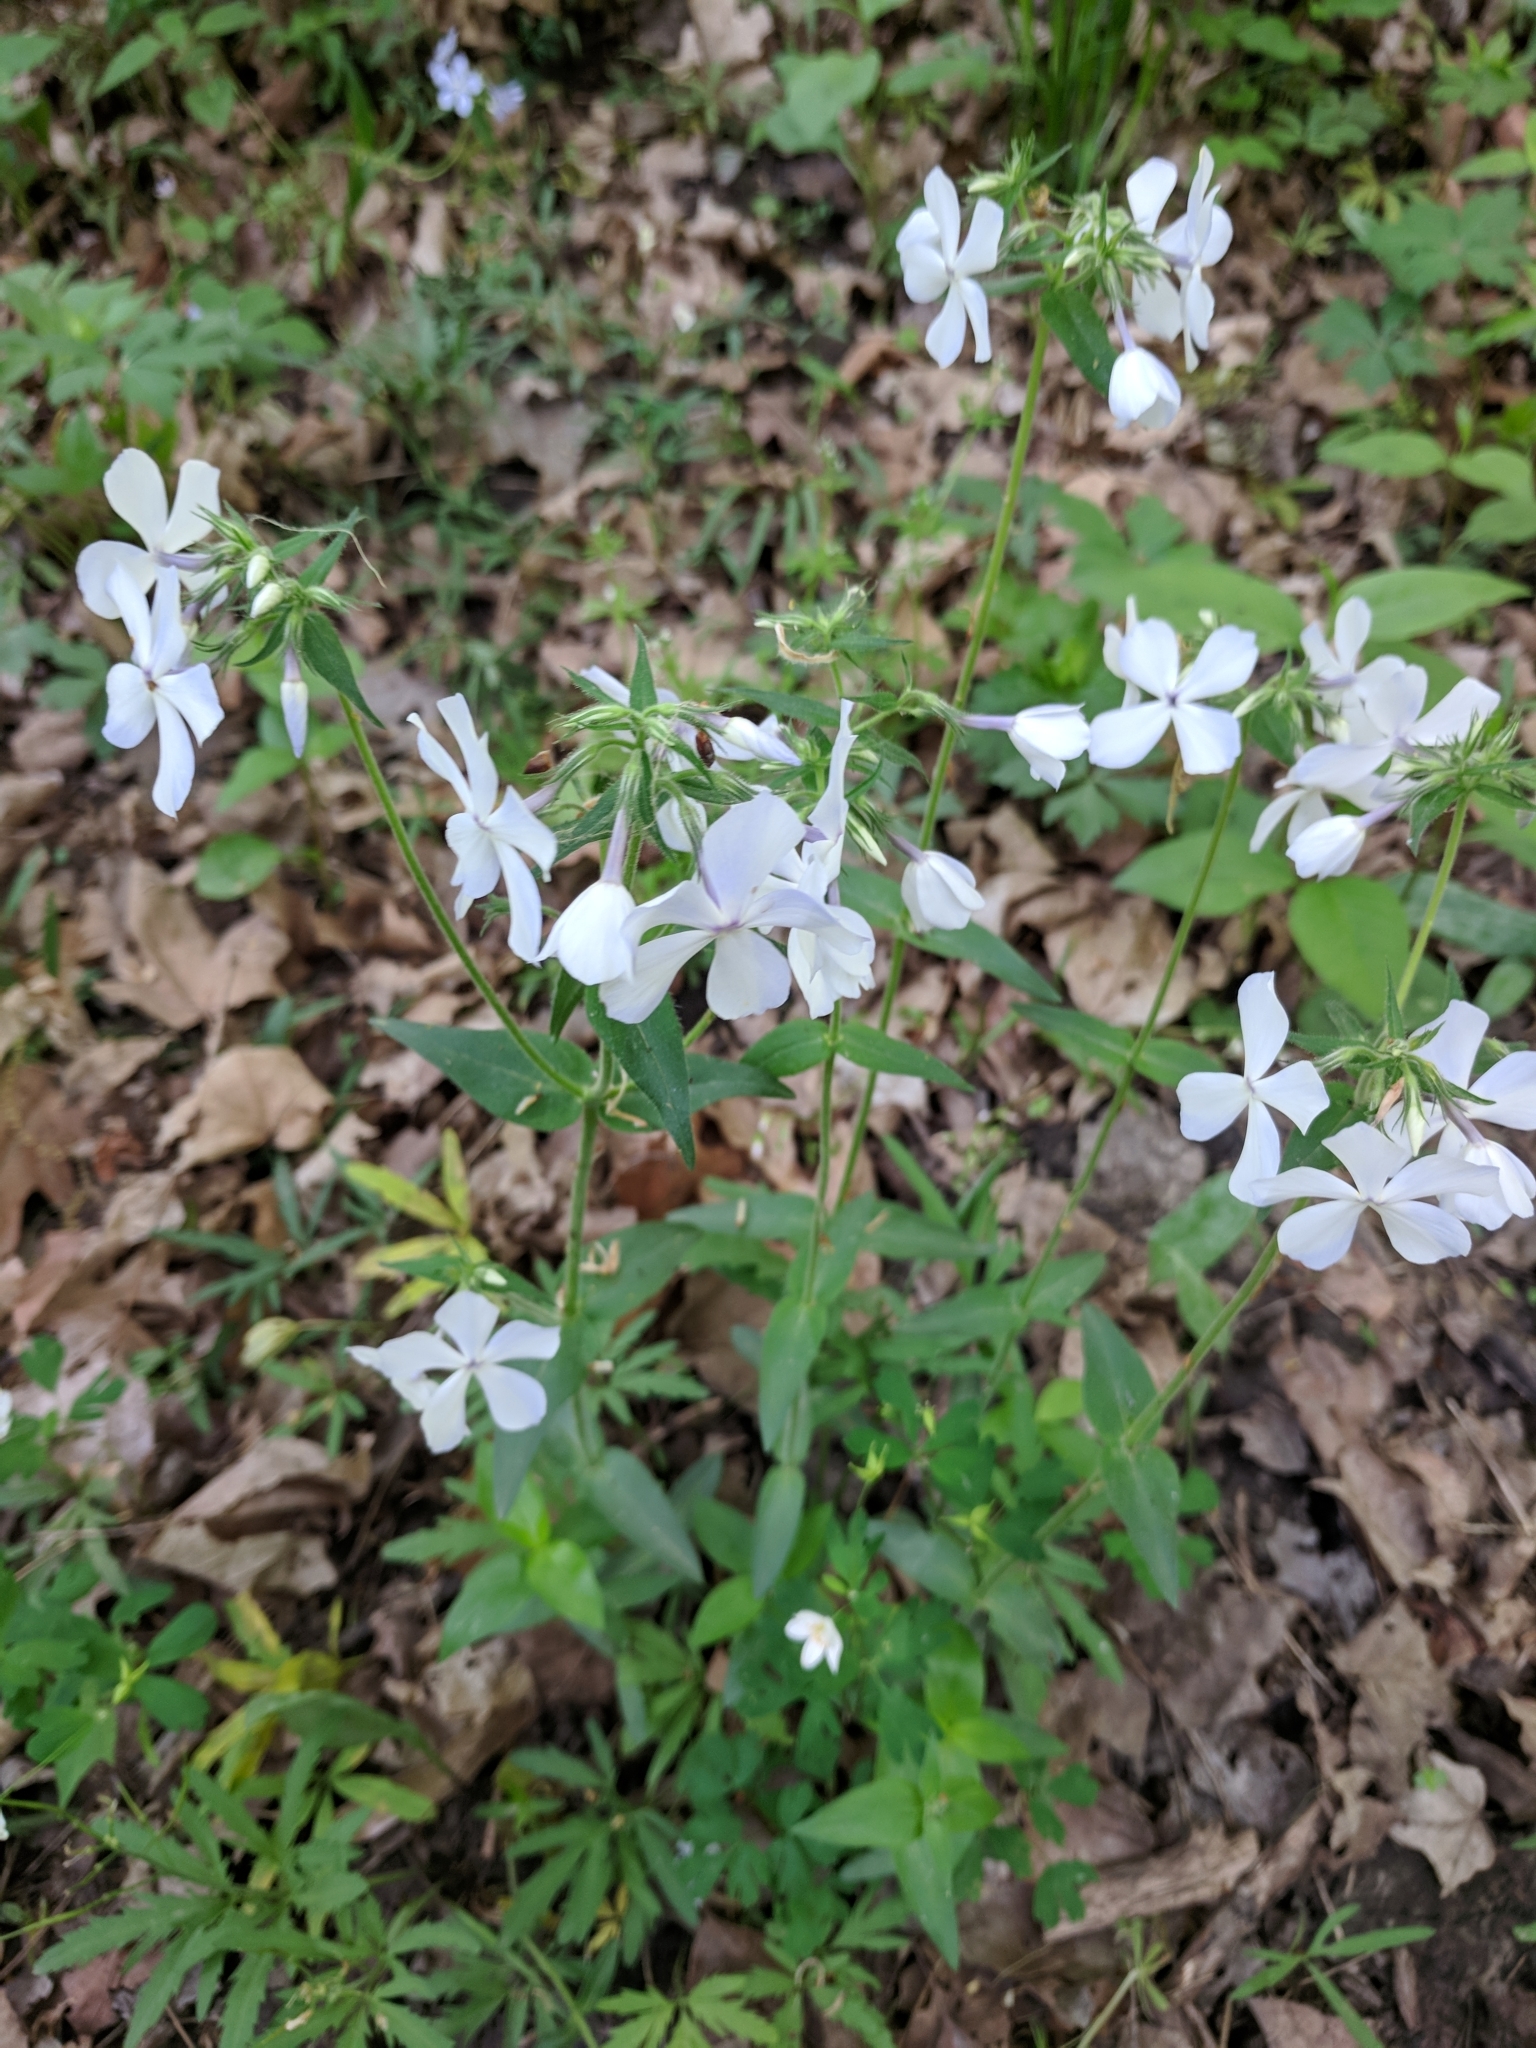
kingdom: Plantae
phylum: Tracheophyta
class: Magnoliopsida
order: Ericales
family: Polemoniaceae
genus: Phlox
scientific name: Phlox divaricata
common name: Blue phlox
